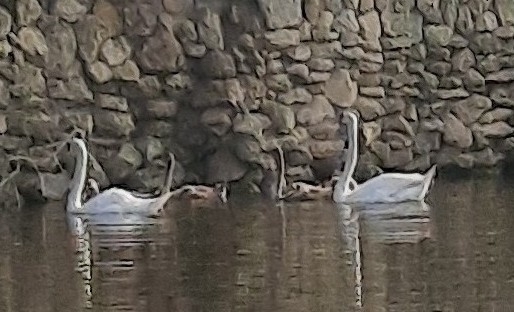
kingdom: Animalia
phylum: Chordata
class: Aves
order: Anseriformes
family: Anatidae
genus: Cygnus
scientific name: Cygnus olor
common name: Mute swan
